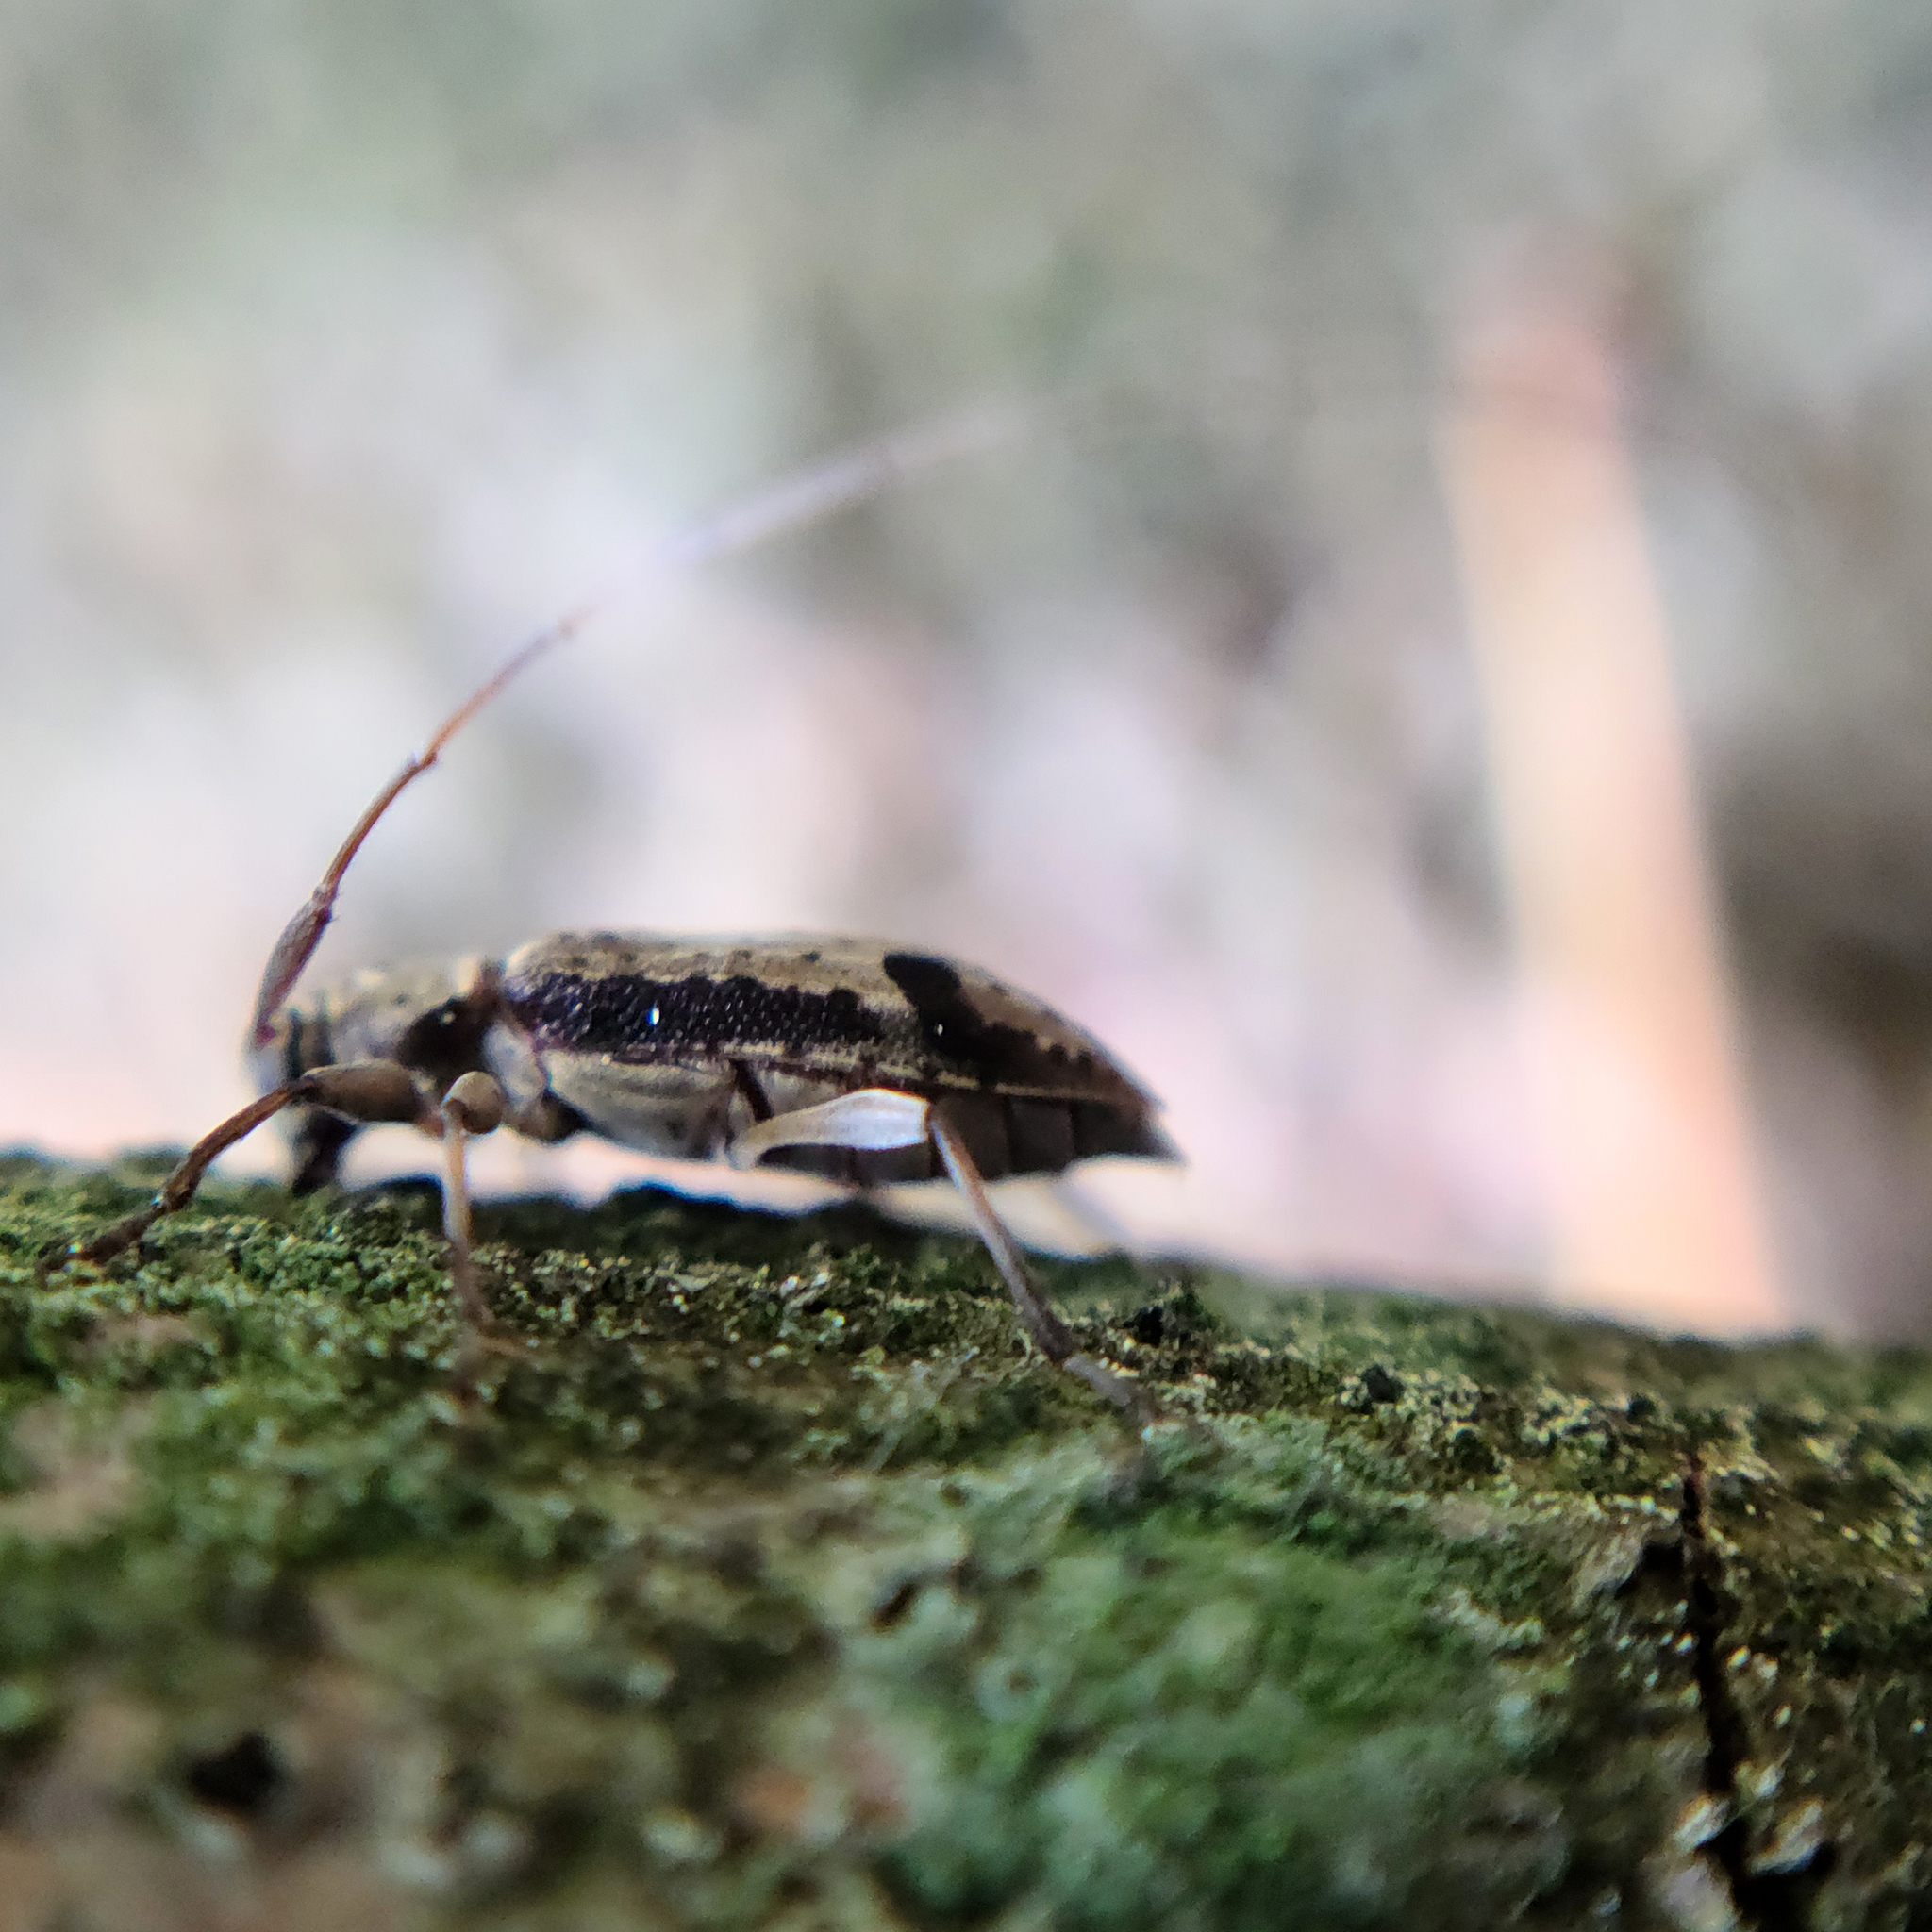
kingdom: Animalia
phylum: Arthropoda
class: Insecta
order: Coleoptera
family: Cerambycidae
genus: Hyperplatys
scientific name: Hyperplatys maculata
